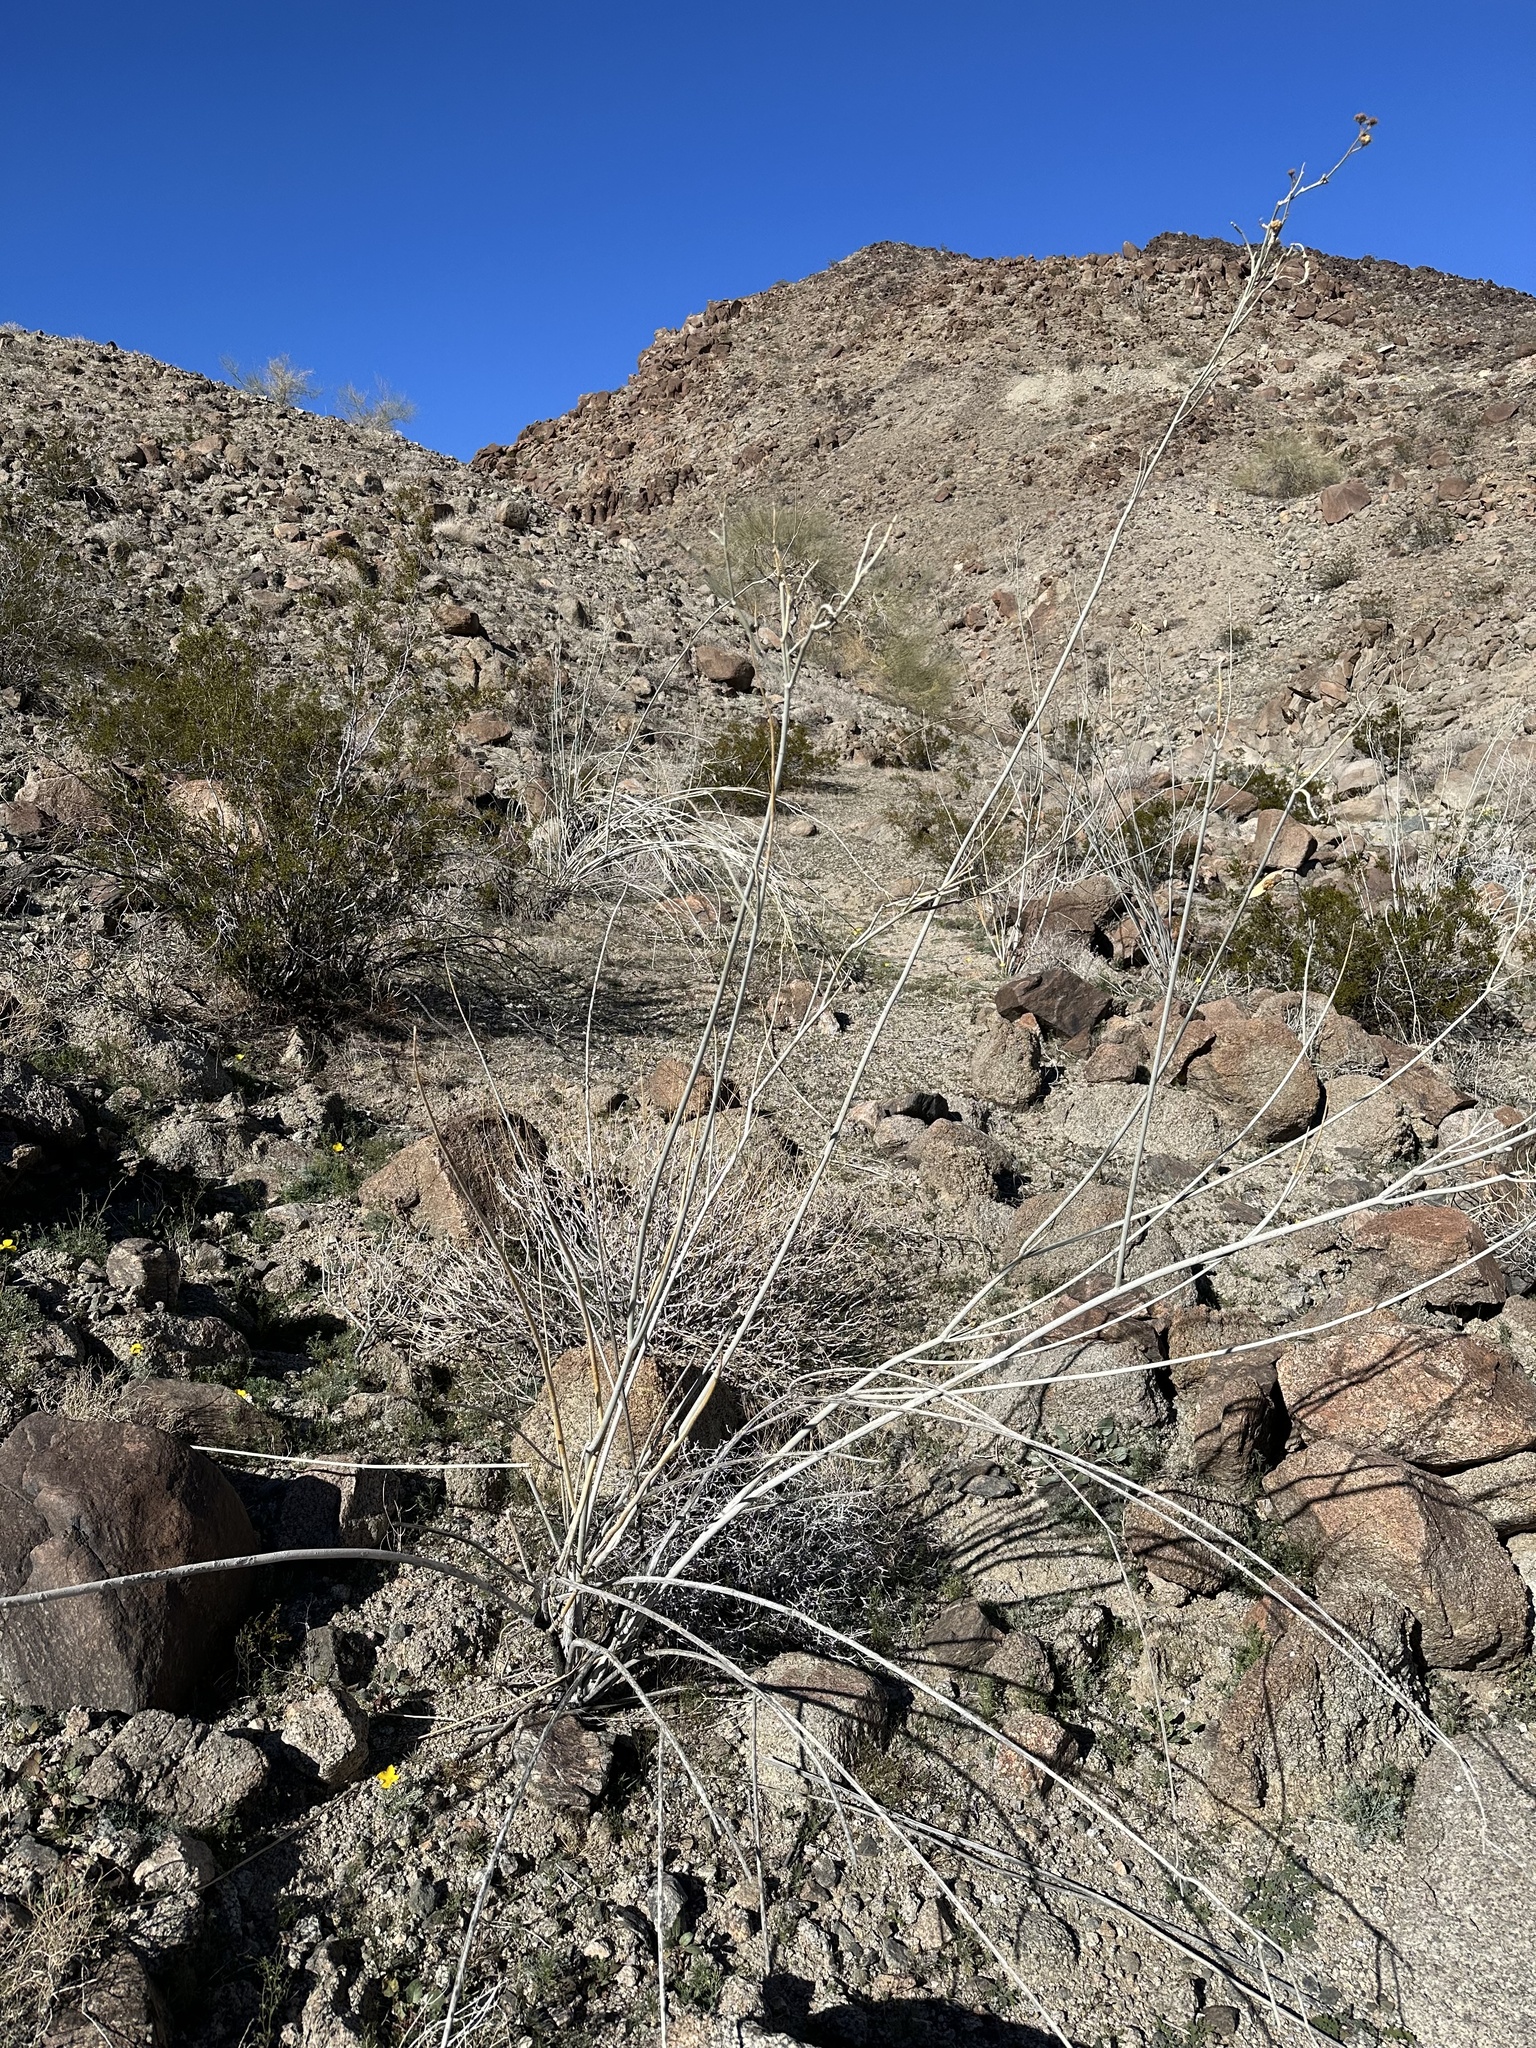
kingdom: Plantae
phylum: Tracheophyta
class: Magnoliopsida
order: Gentianales
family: Apocynaceae
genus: Asclepias
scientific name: Asclepias albicans
